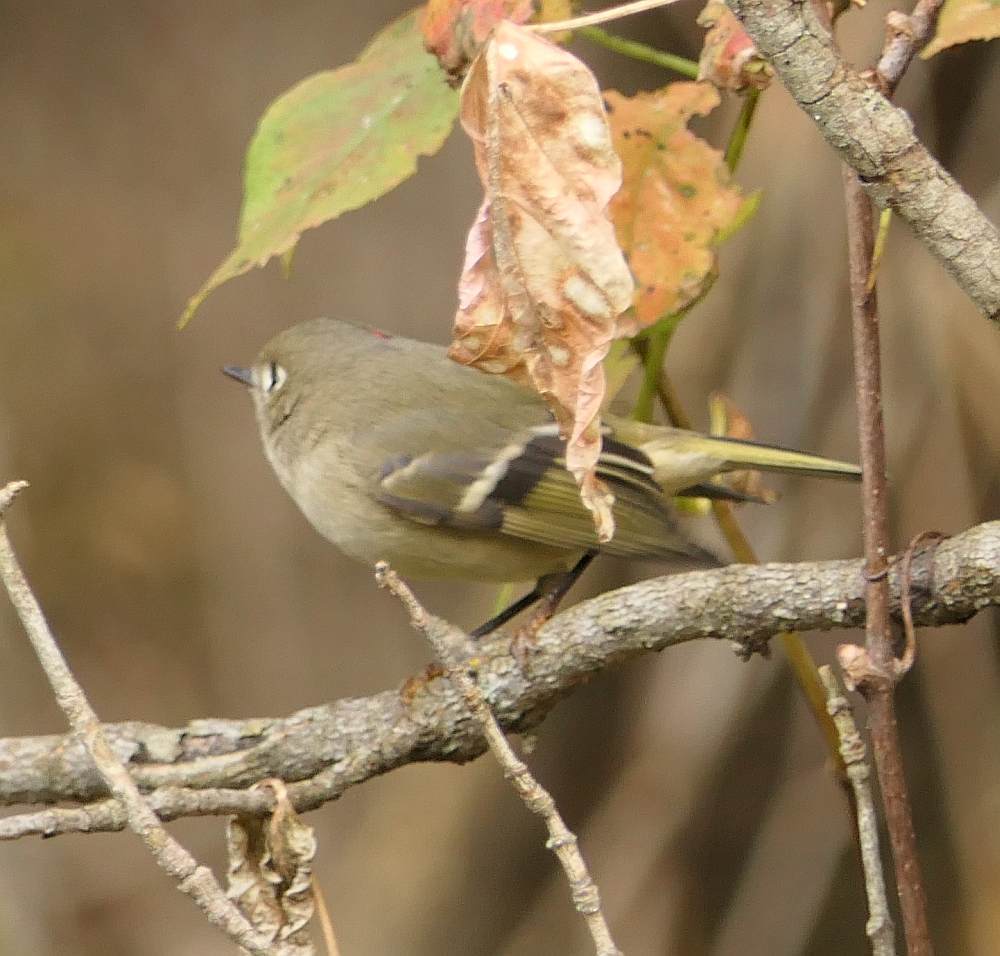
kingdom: Animalia
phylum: Chordata
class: Aves
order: Passeriformes
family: Regulidae
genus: Regulus
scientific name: Regulus calendula
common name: Ruby-crowned kinglet
